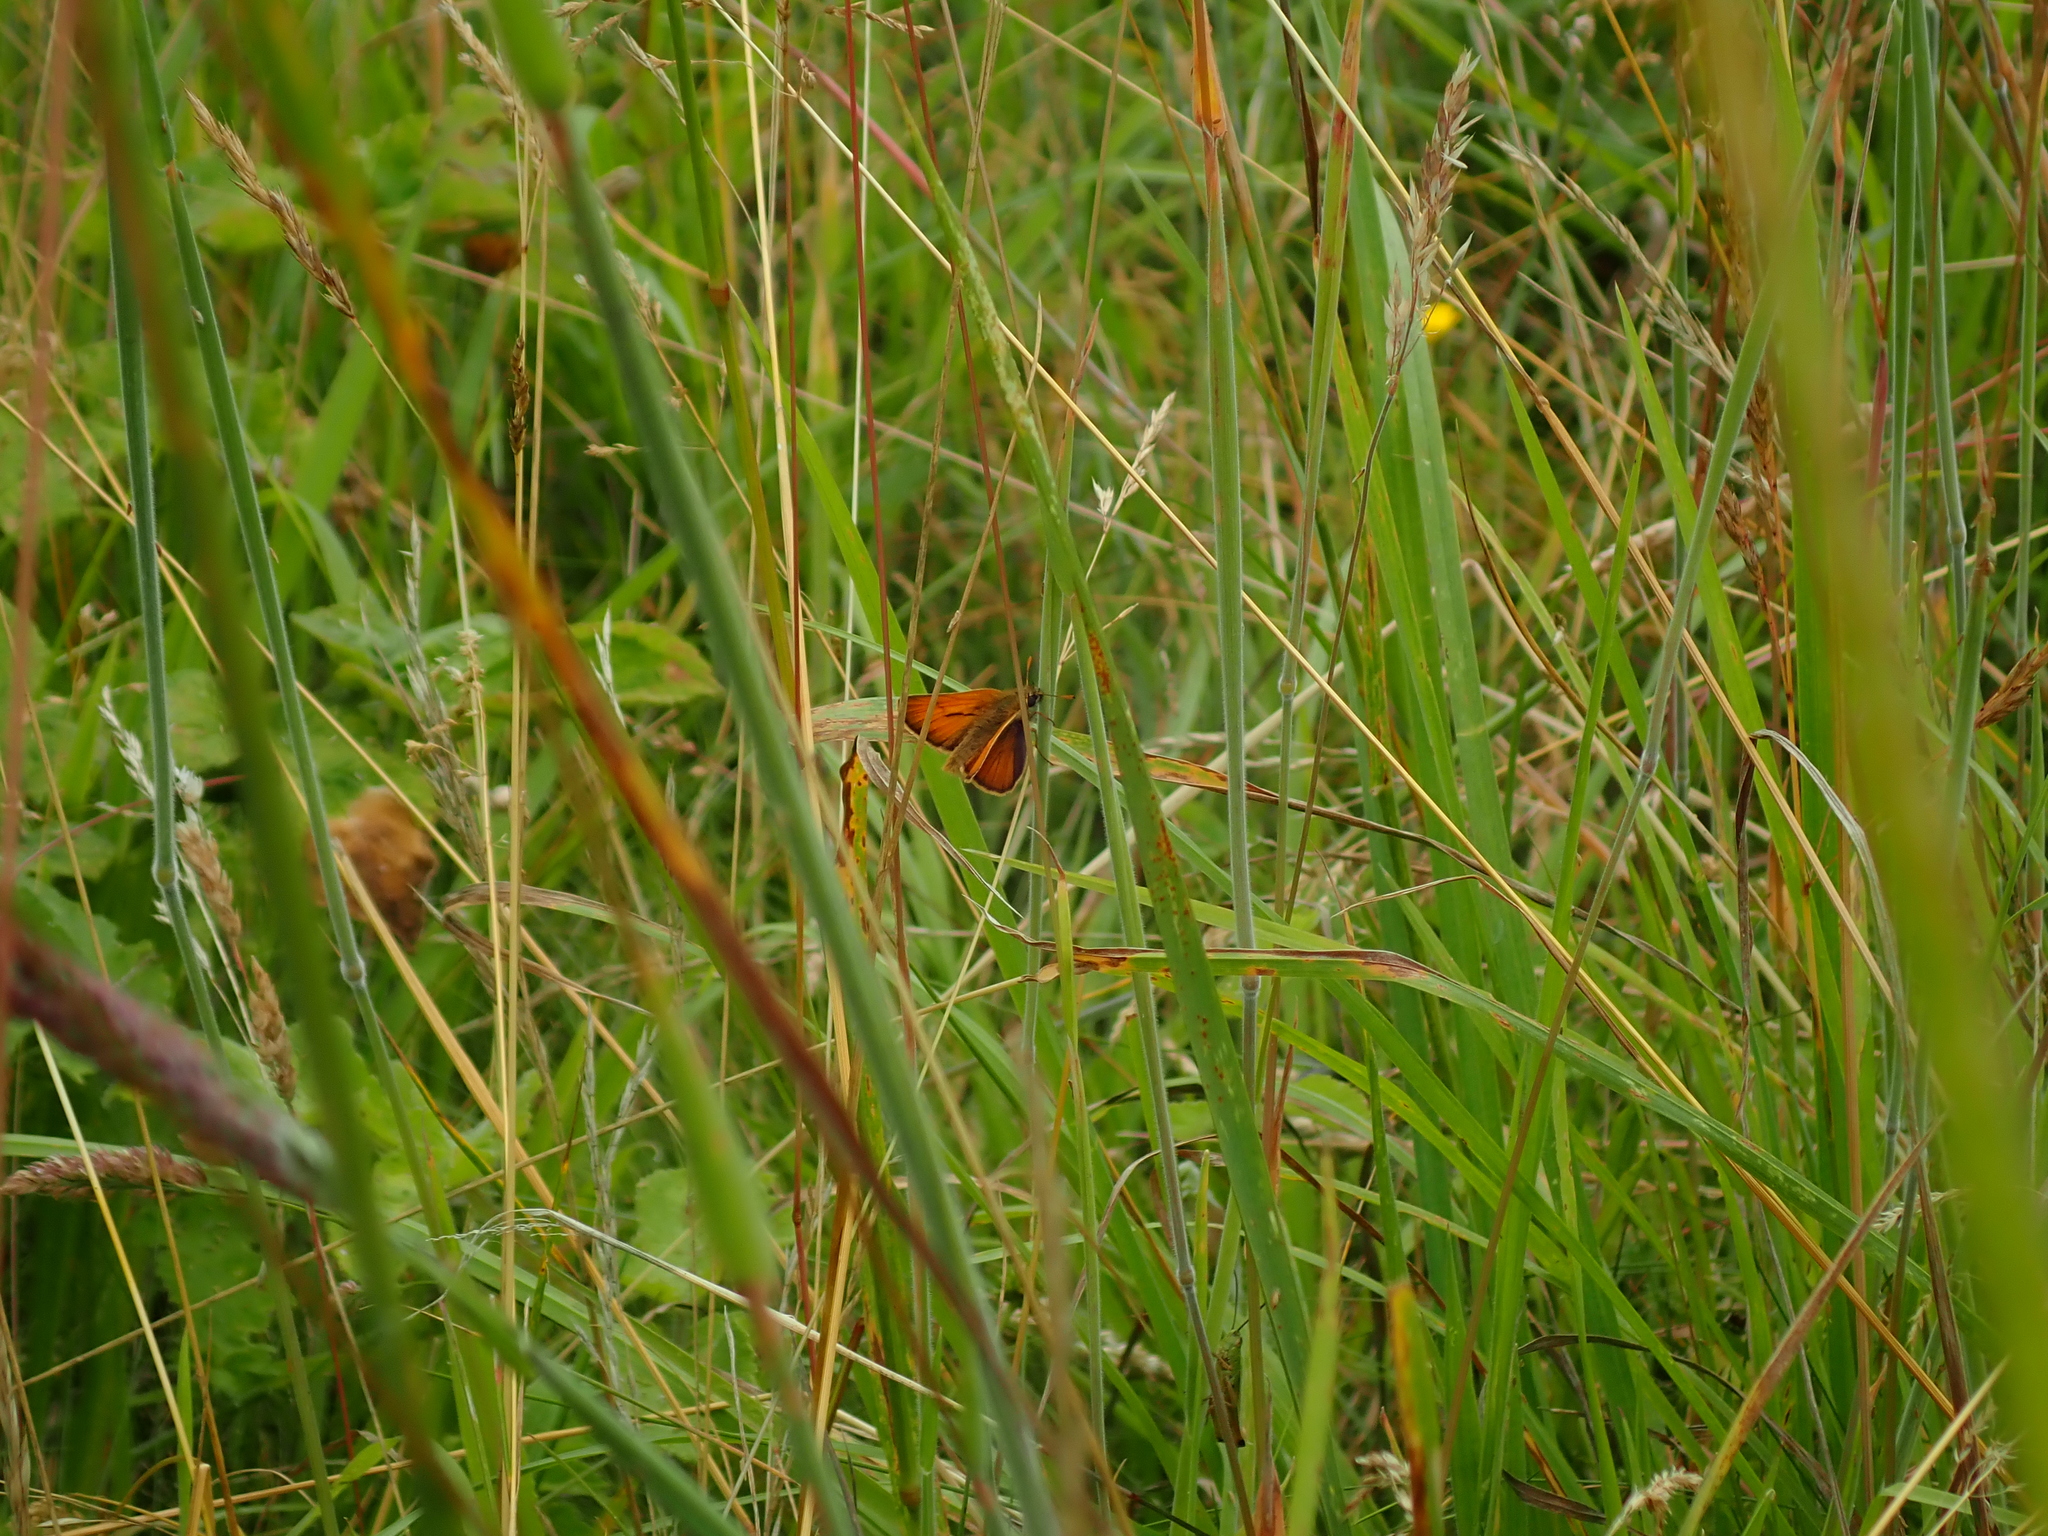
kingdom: Animalia
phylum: Arthropoda
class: Insecta
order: Lepidoptera
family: Hesperiidae
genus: Thymelicus
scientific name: Thymelicus sylvestris
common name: Small skipper
